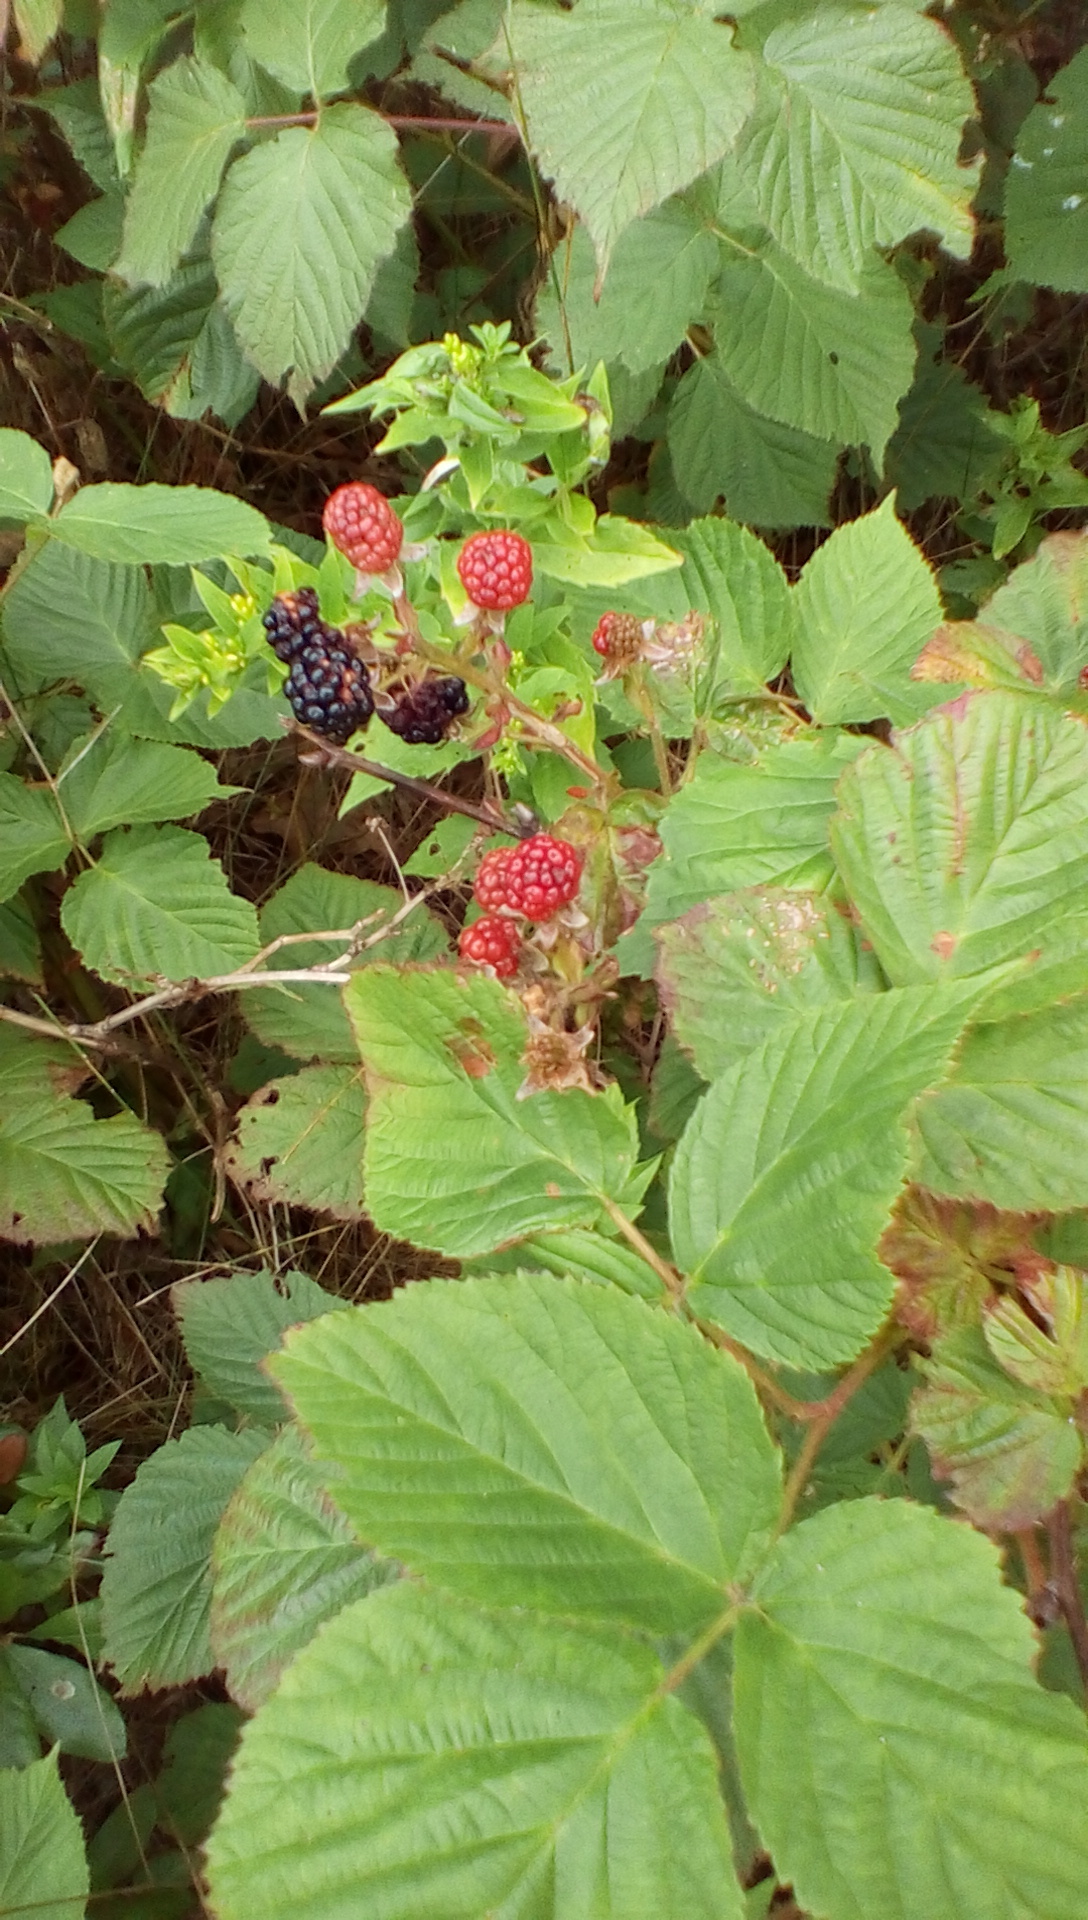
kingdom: Plantae
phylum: Tracheophyta
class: Magnoliopsida
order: Rosales
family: Rosaceae
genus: Rubus
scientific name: Rubus
